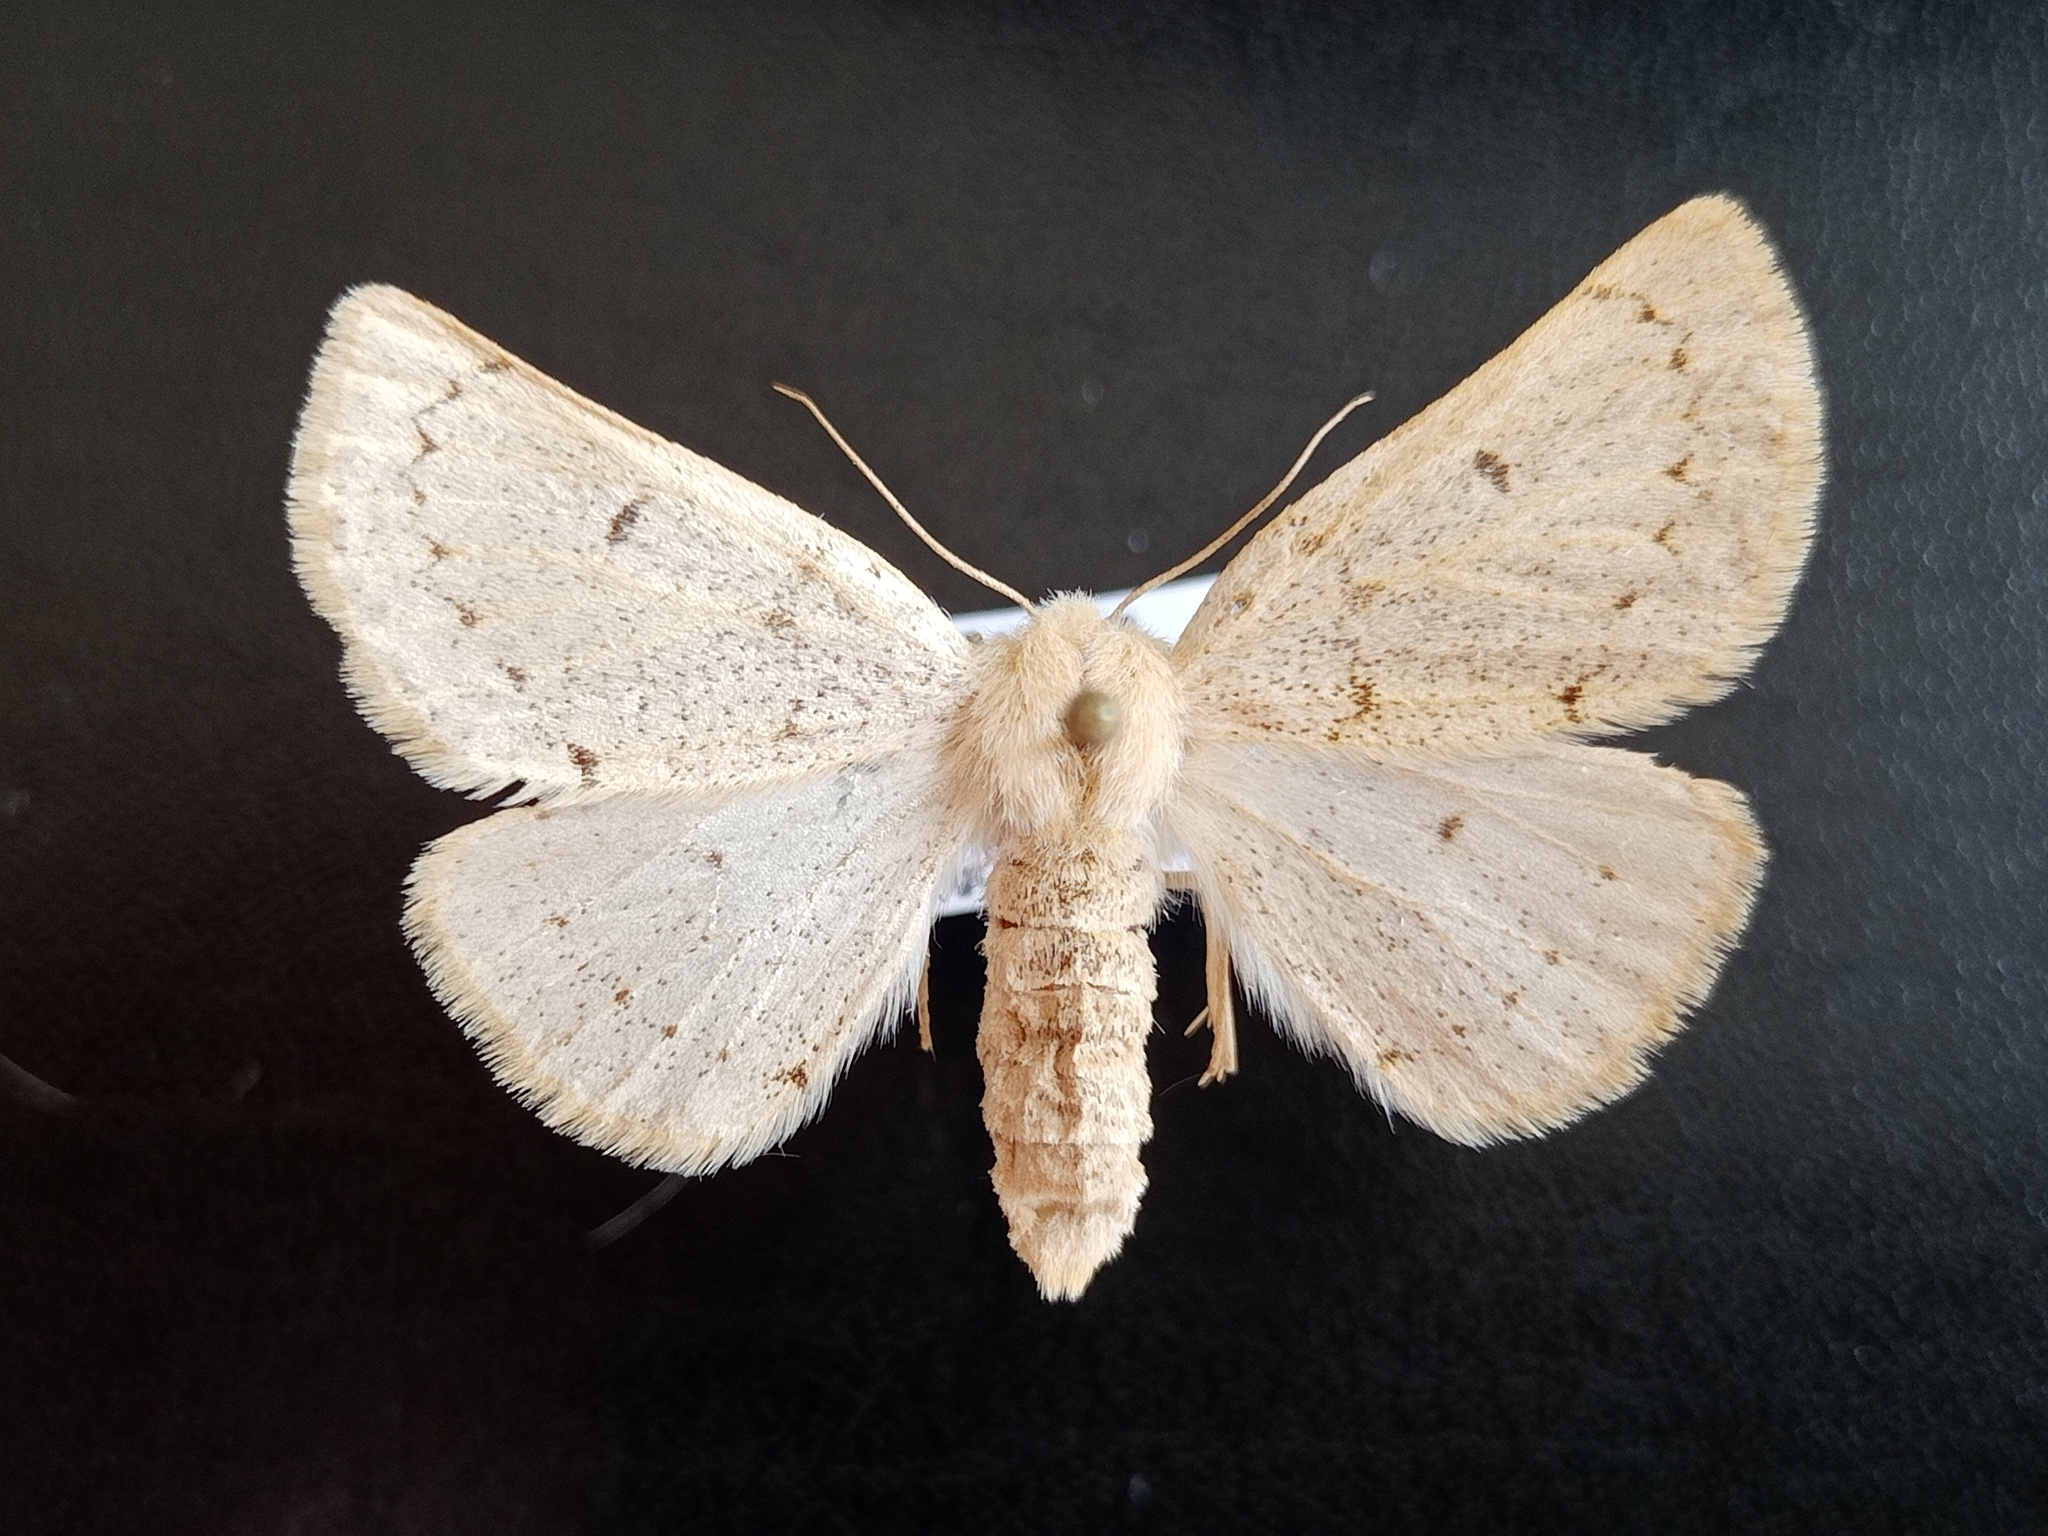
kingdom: Animalia
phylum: Arthropoda
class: Insecta
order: Lepidoptera
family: Geometridae
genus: Dyscia
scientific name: Dyscia lentiscaria
